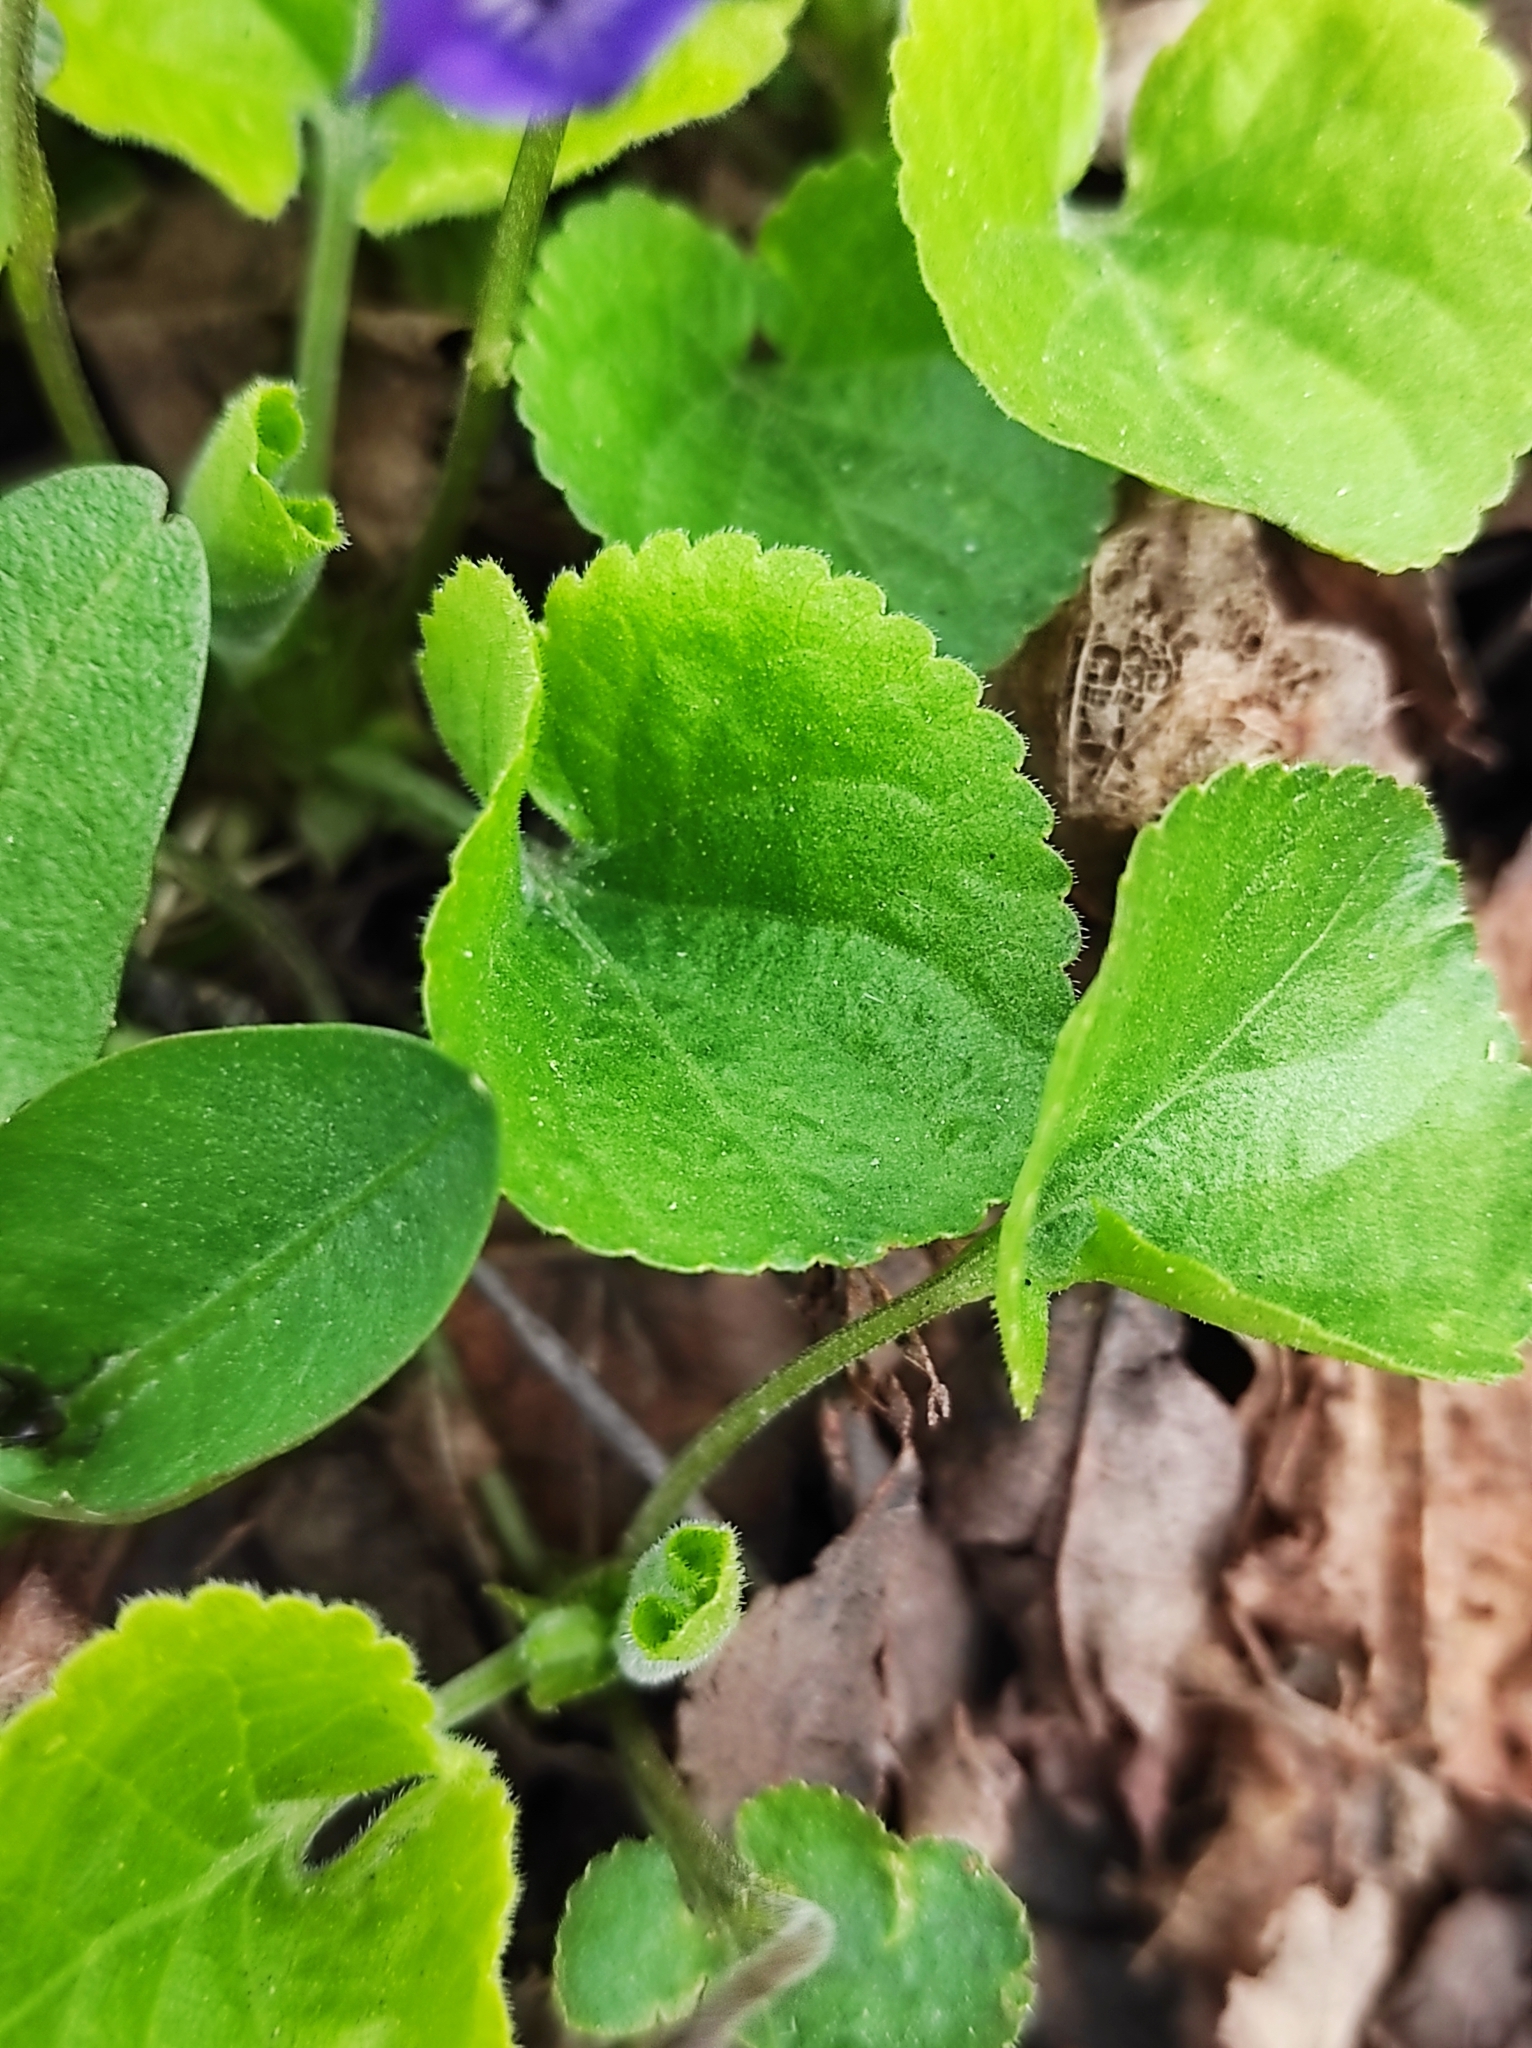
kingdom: Plantae
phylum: Tracheophyta
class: Magnoliopsida
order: Malpighiales
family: Violaceae
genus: Viola
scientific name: Viola odorata
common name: Sweet violet
